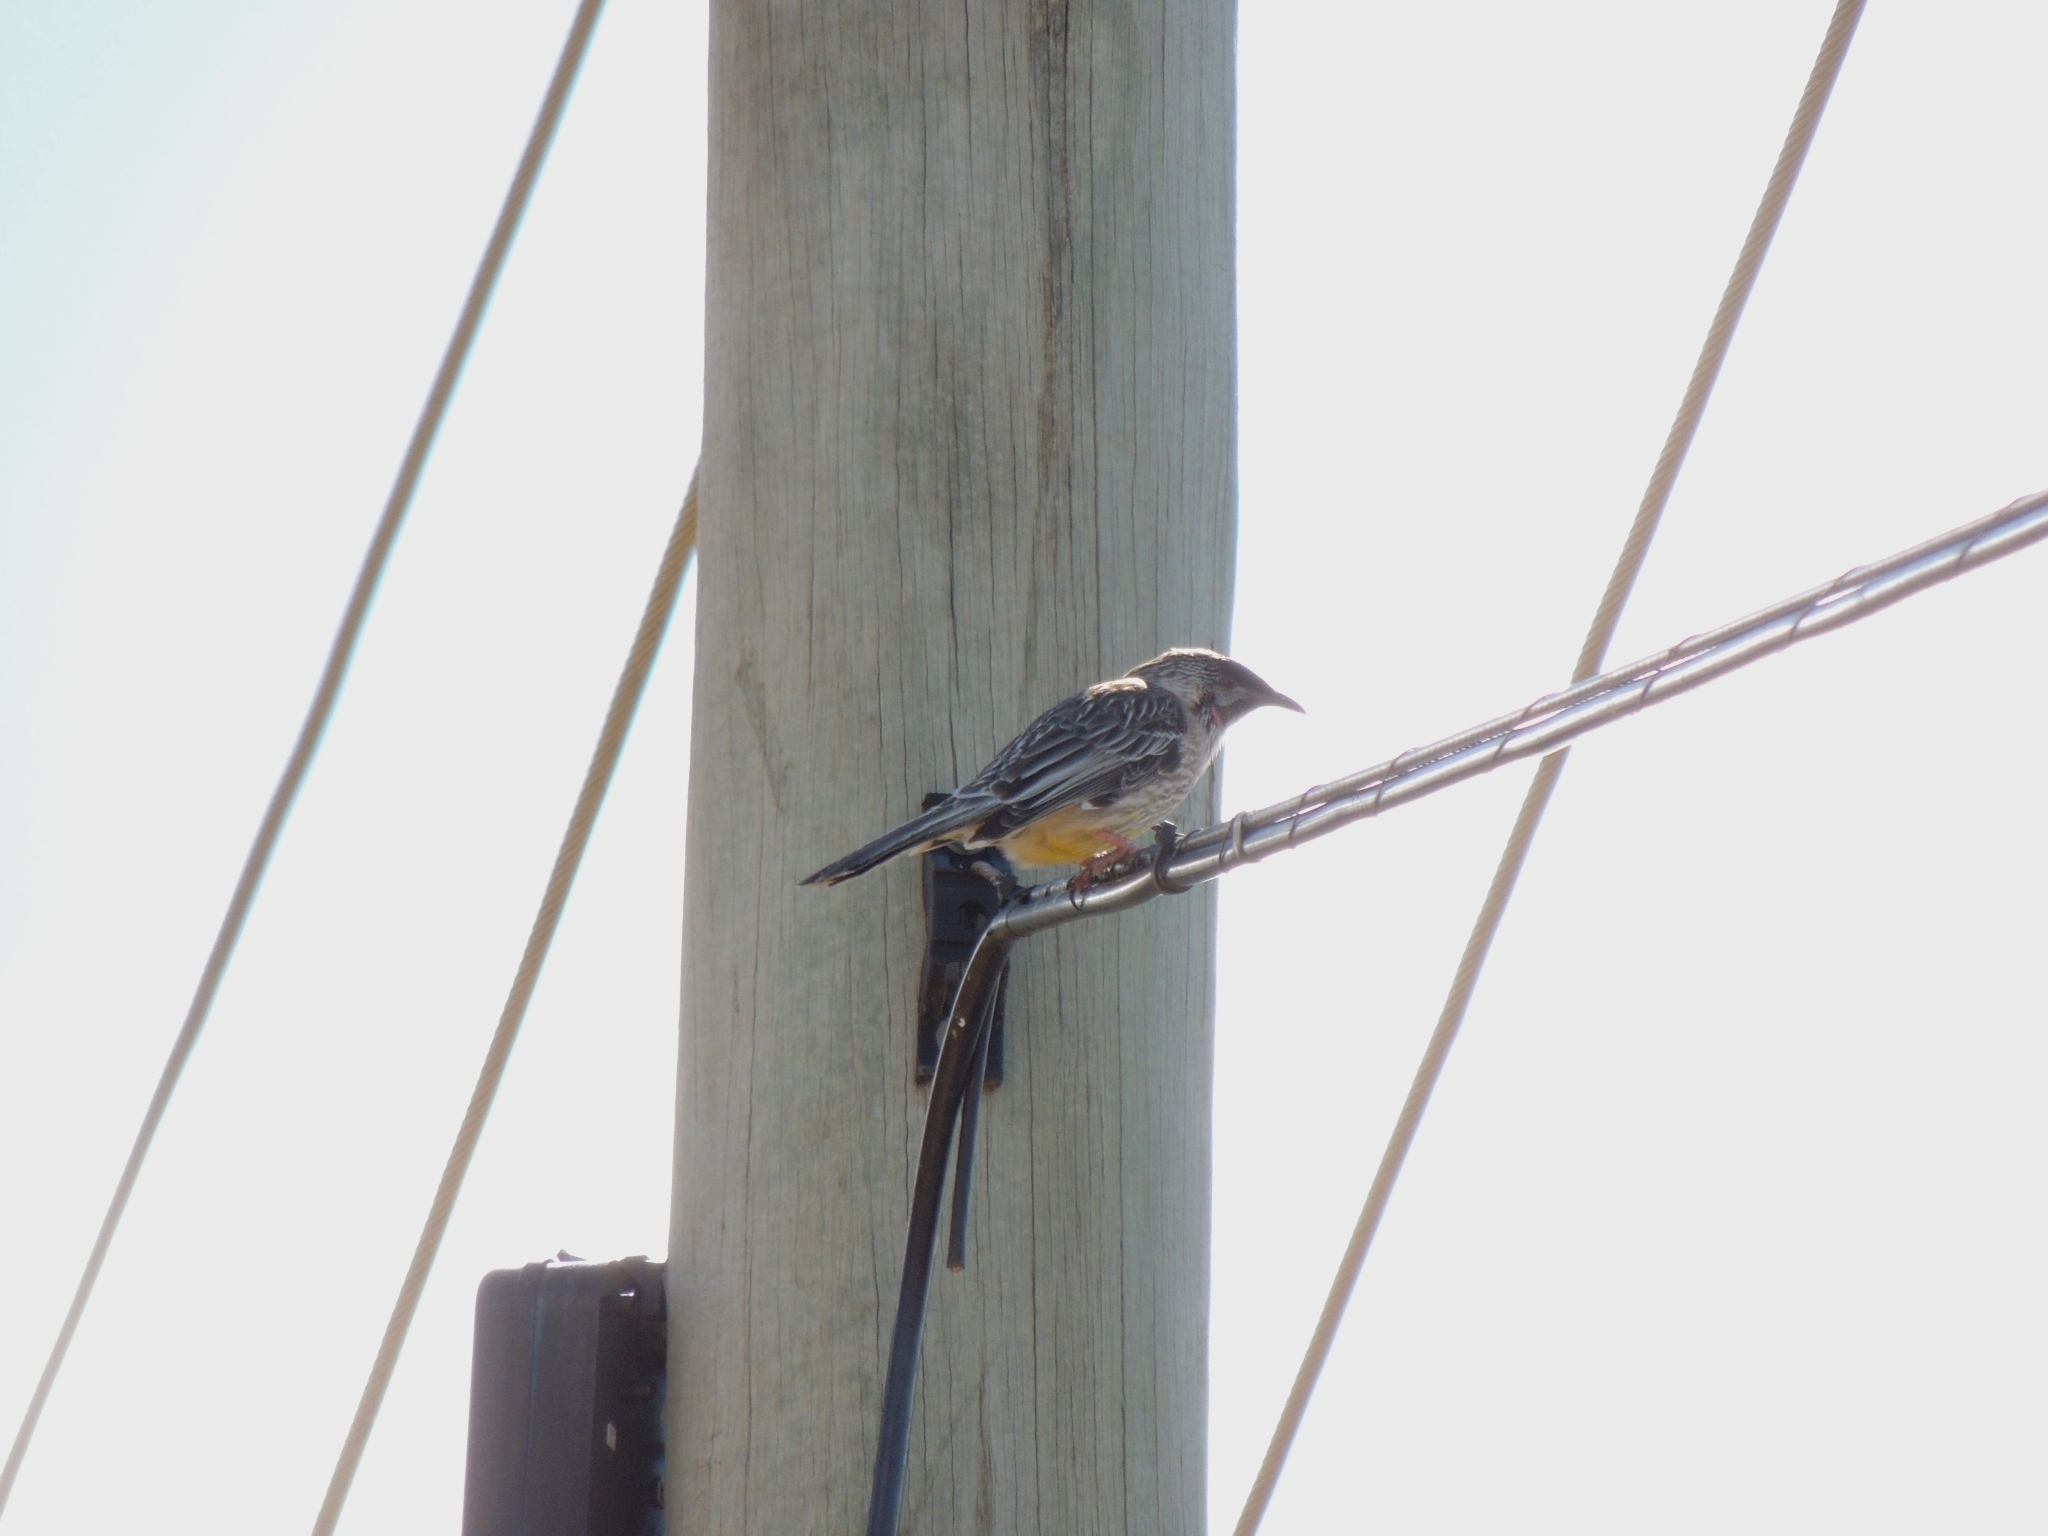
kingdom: Animalia
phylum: Chordata
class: Aves
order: Passeriformes
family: Meliphagidae
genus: Anthochaera
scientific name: Anthochaera carunculata
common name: Red wattlebird
